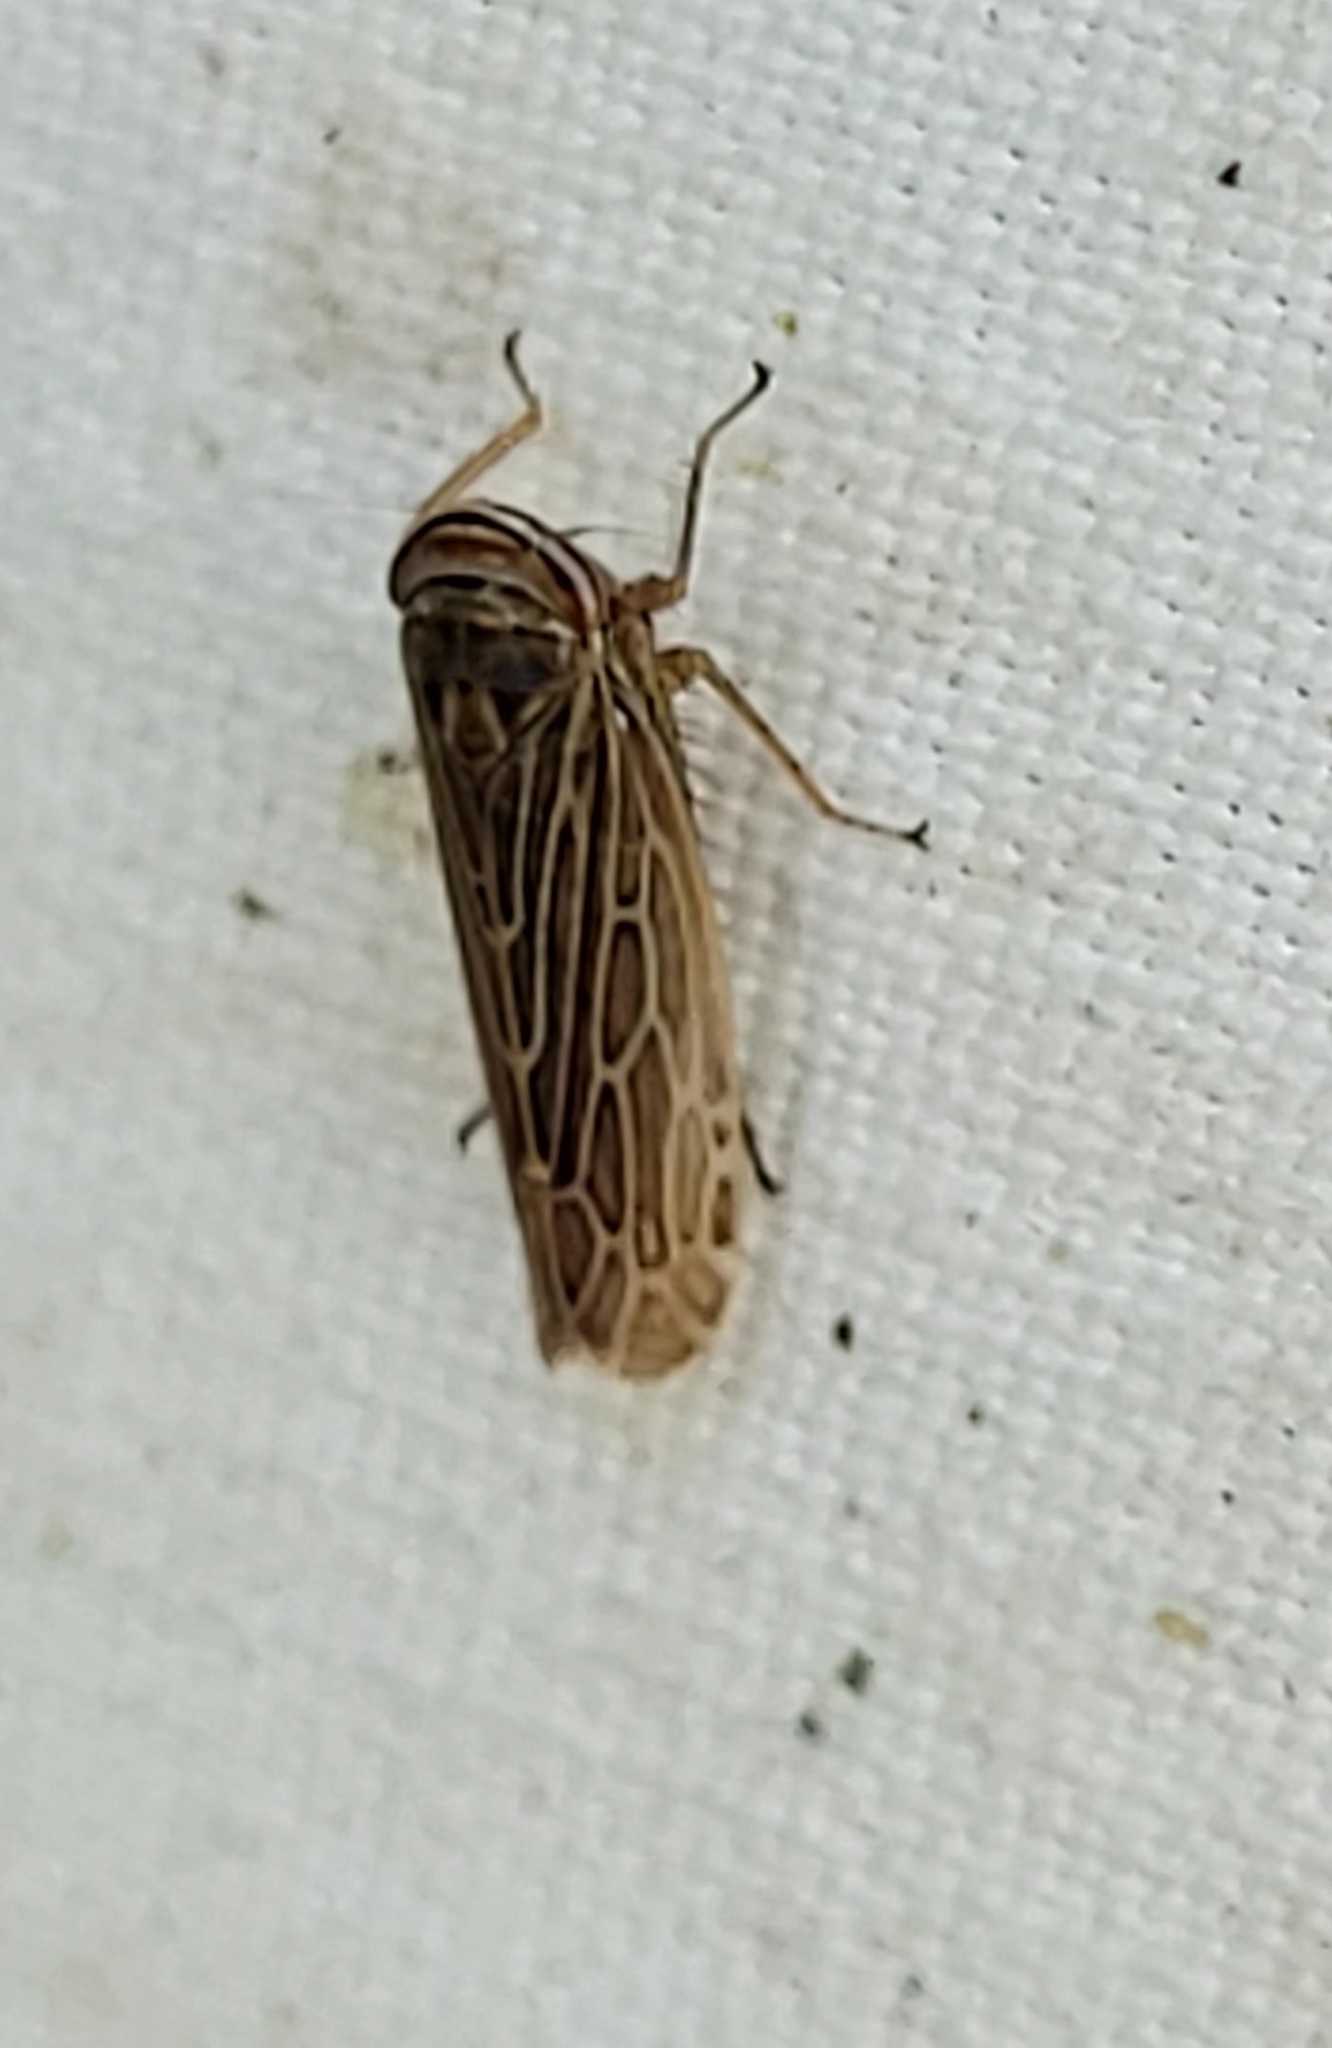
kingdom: Animalia
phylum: Arthropoda
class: Insecta
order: Hemiptera
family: Cicadellidae
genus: Paramesus
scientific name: Paramesus major
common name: Leafhopper
